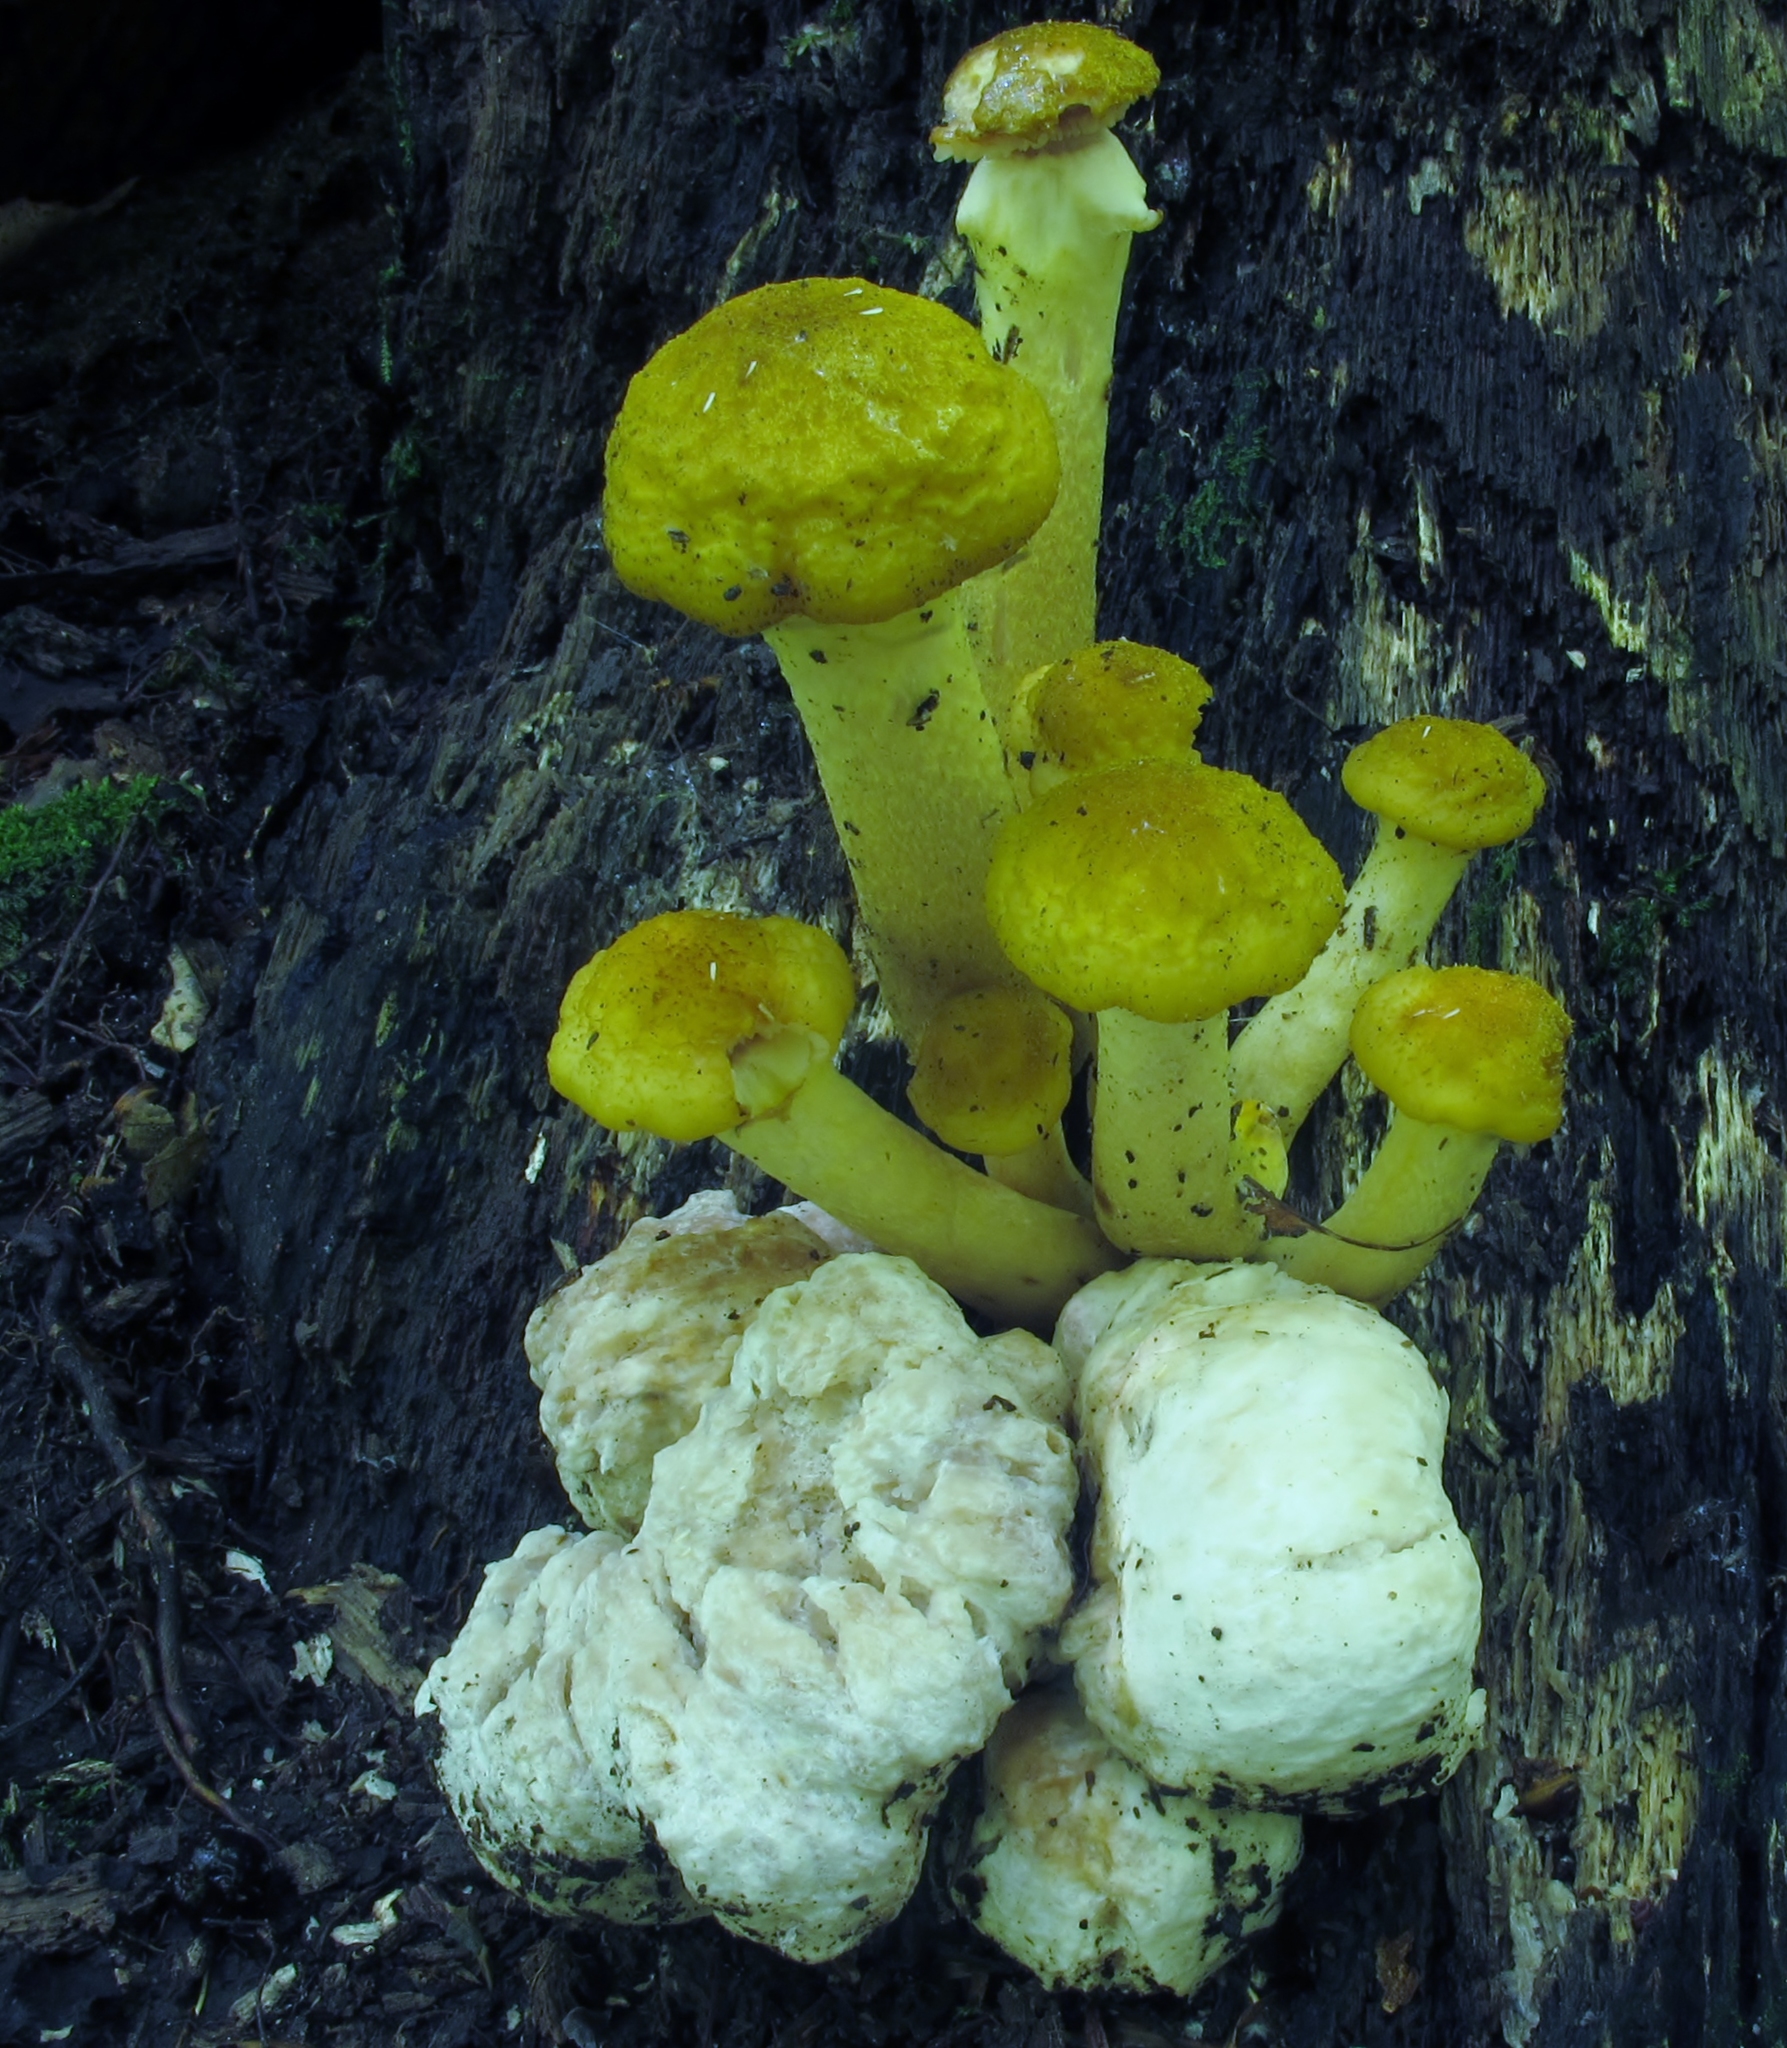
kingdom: Fungi
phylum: Basidiomycota
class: Agaricomycetes
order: Agaricales
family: Entolomataceae
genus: Entoloma
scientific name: Entoloma abortivum
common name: Aborted entoloma
